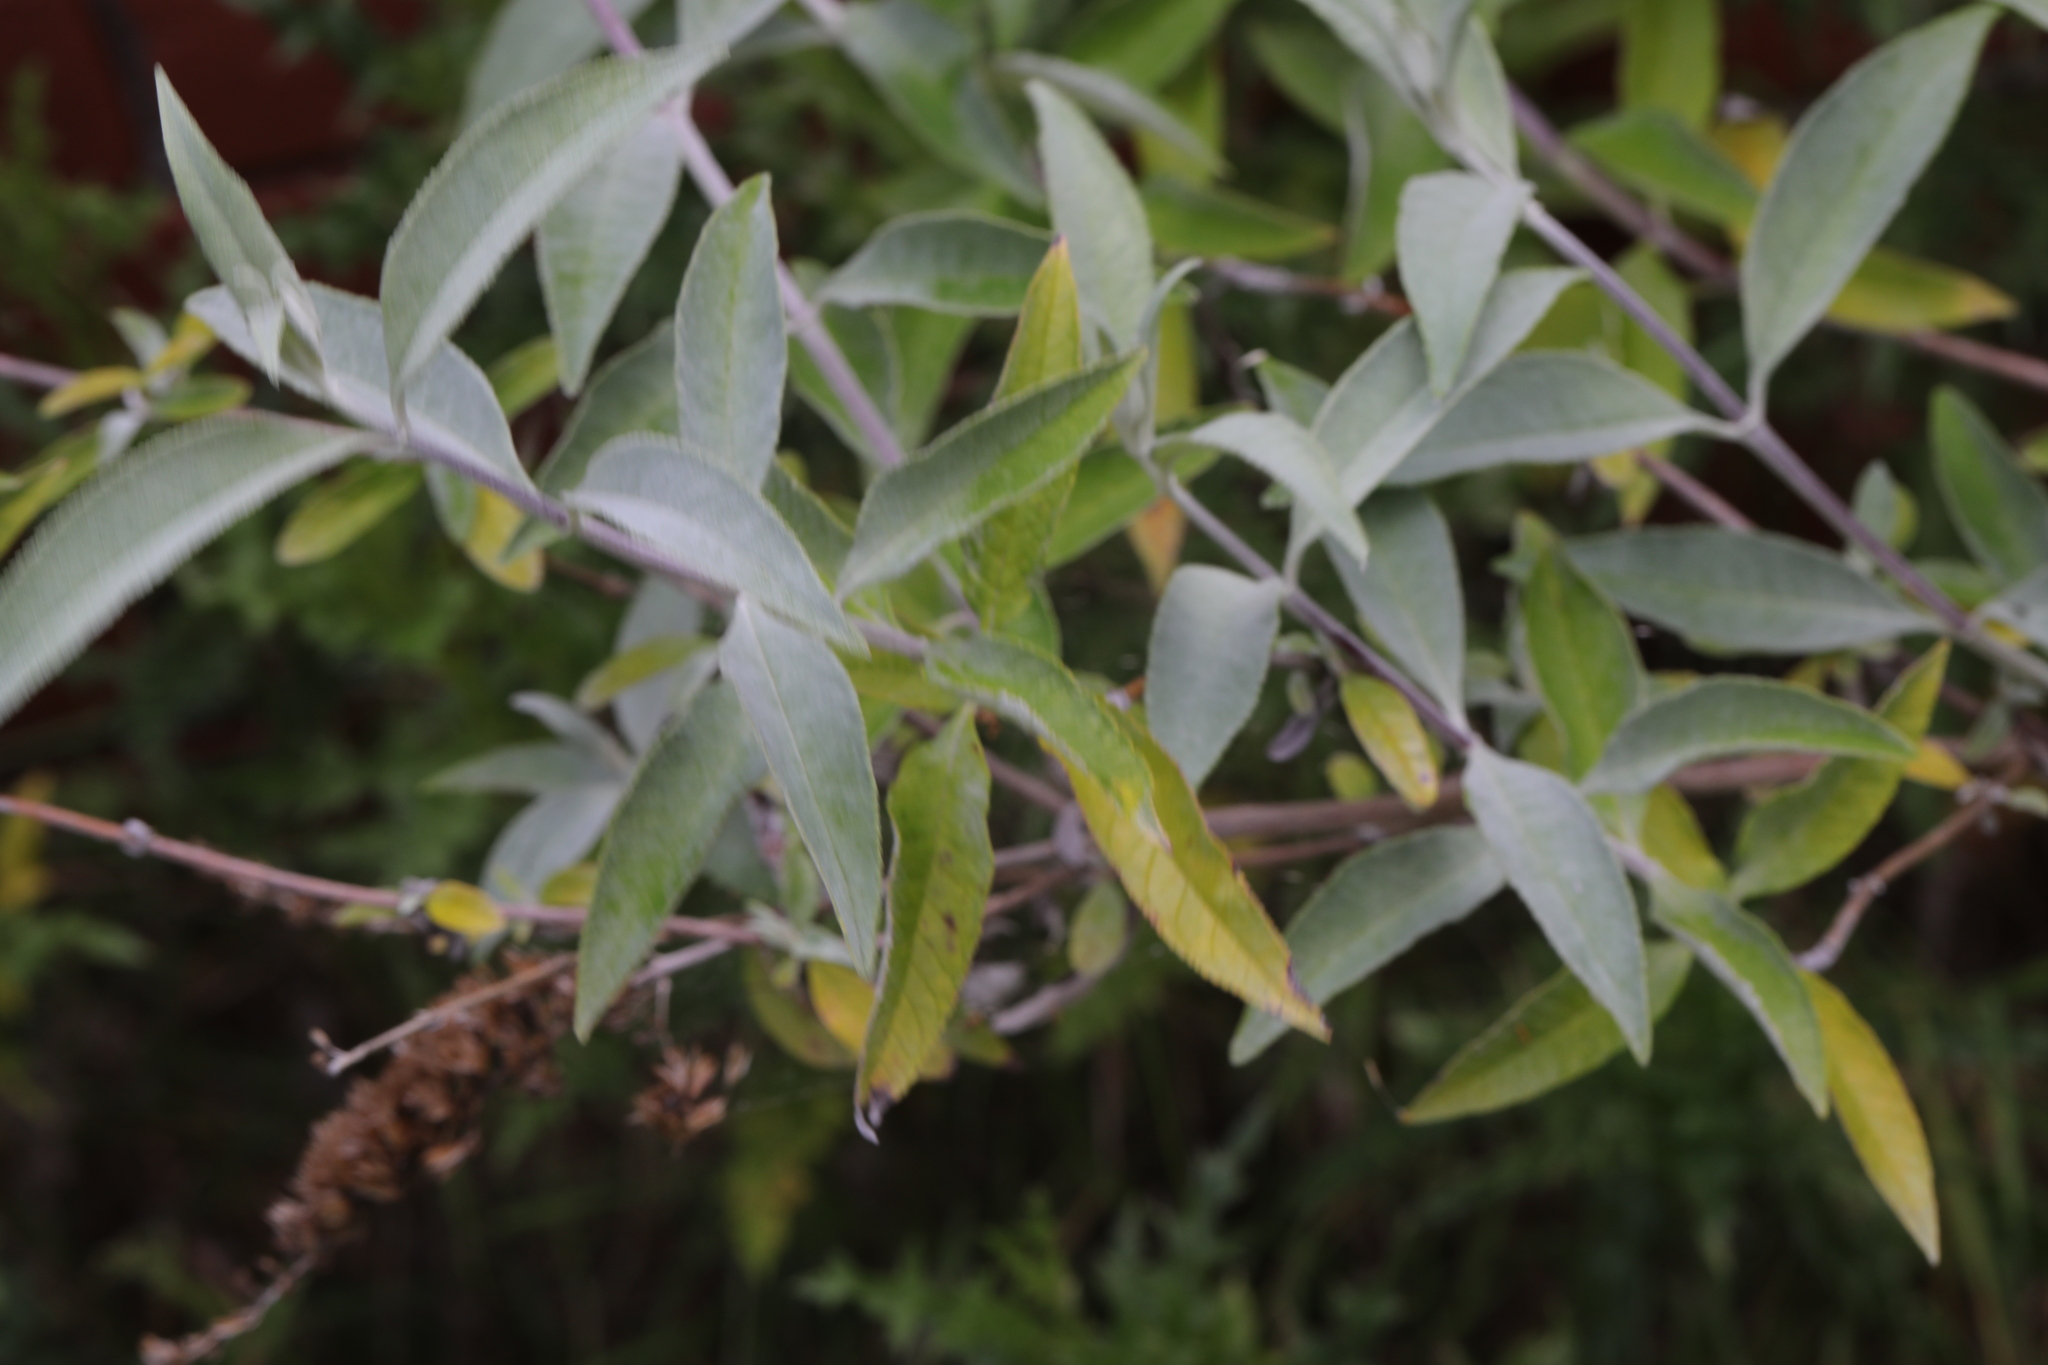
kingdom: Plantae
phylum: Tracheophyta
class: Magnoliopsida
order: Lamiales
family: Scrophulariaceae
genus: Buddleja
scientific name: Buddleja davidii
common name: Butterfly-bush
